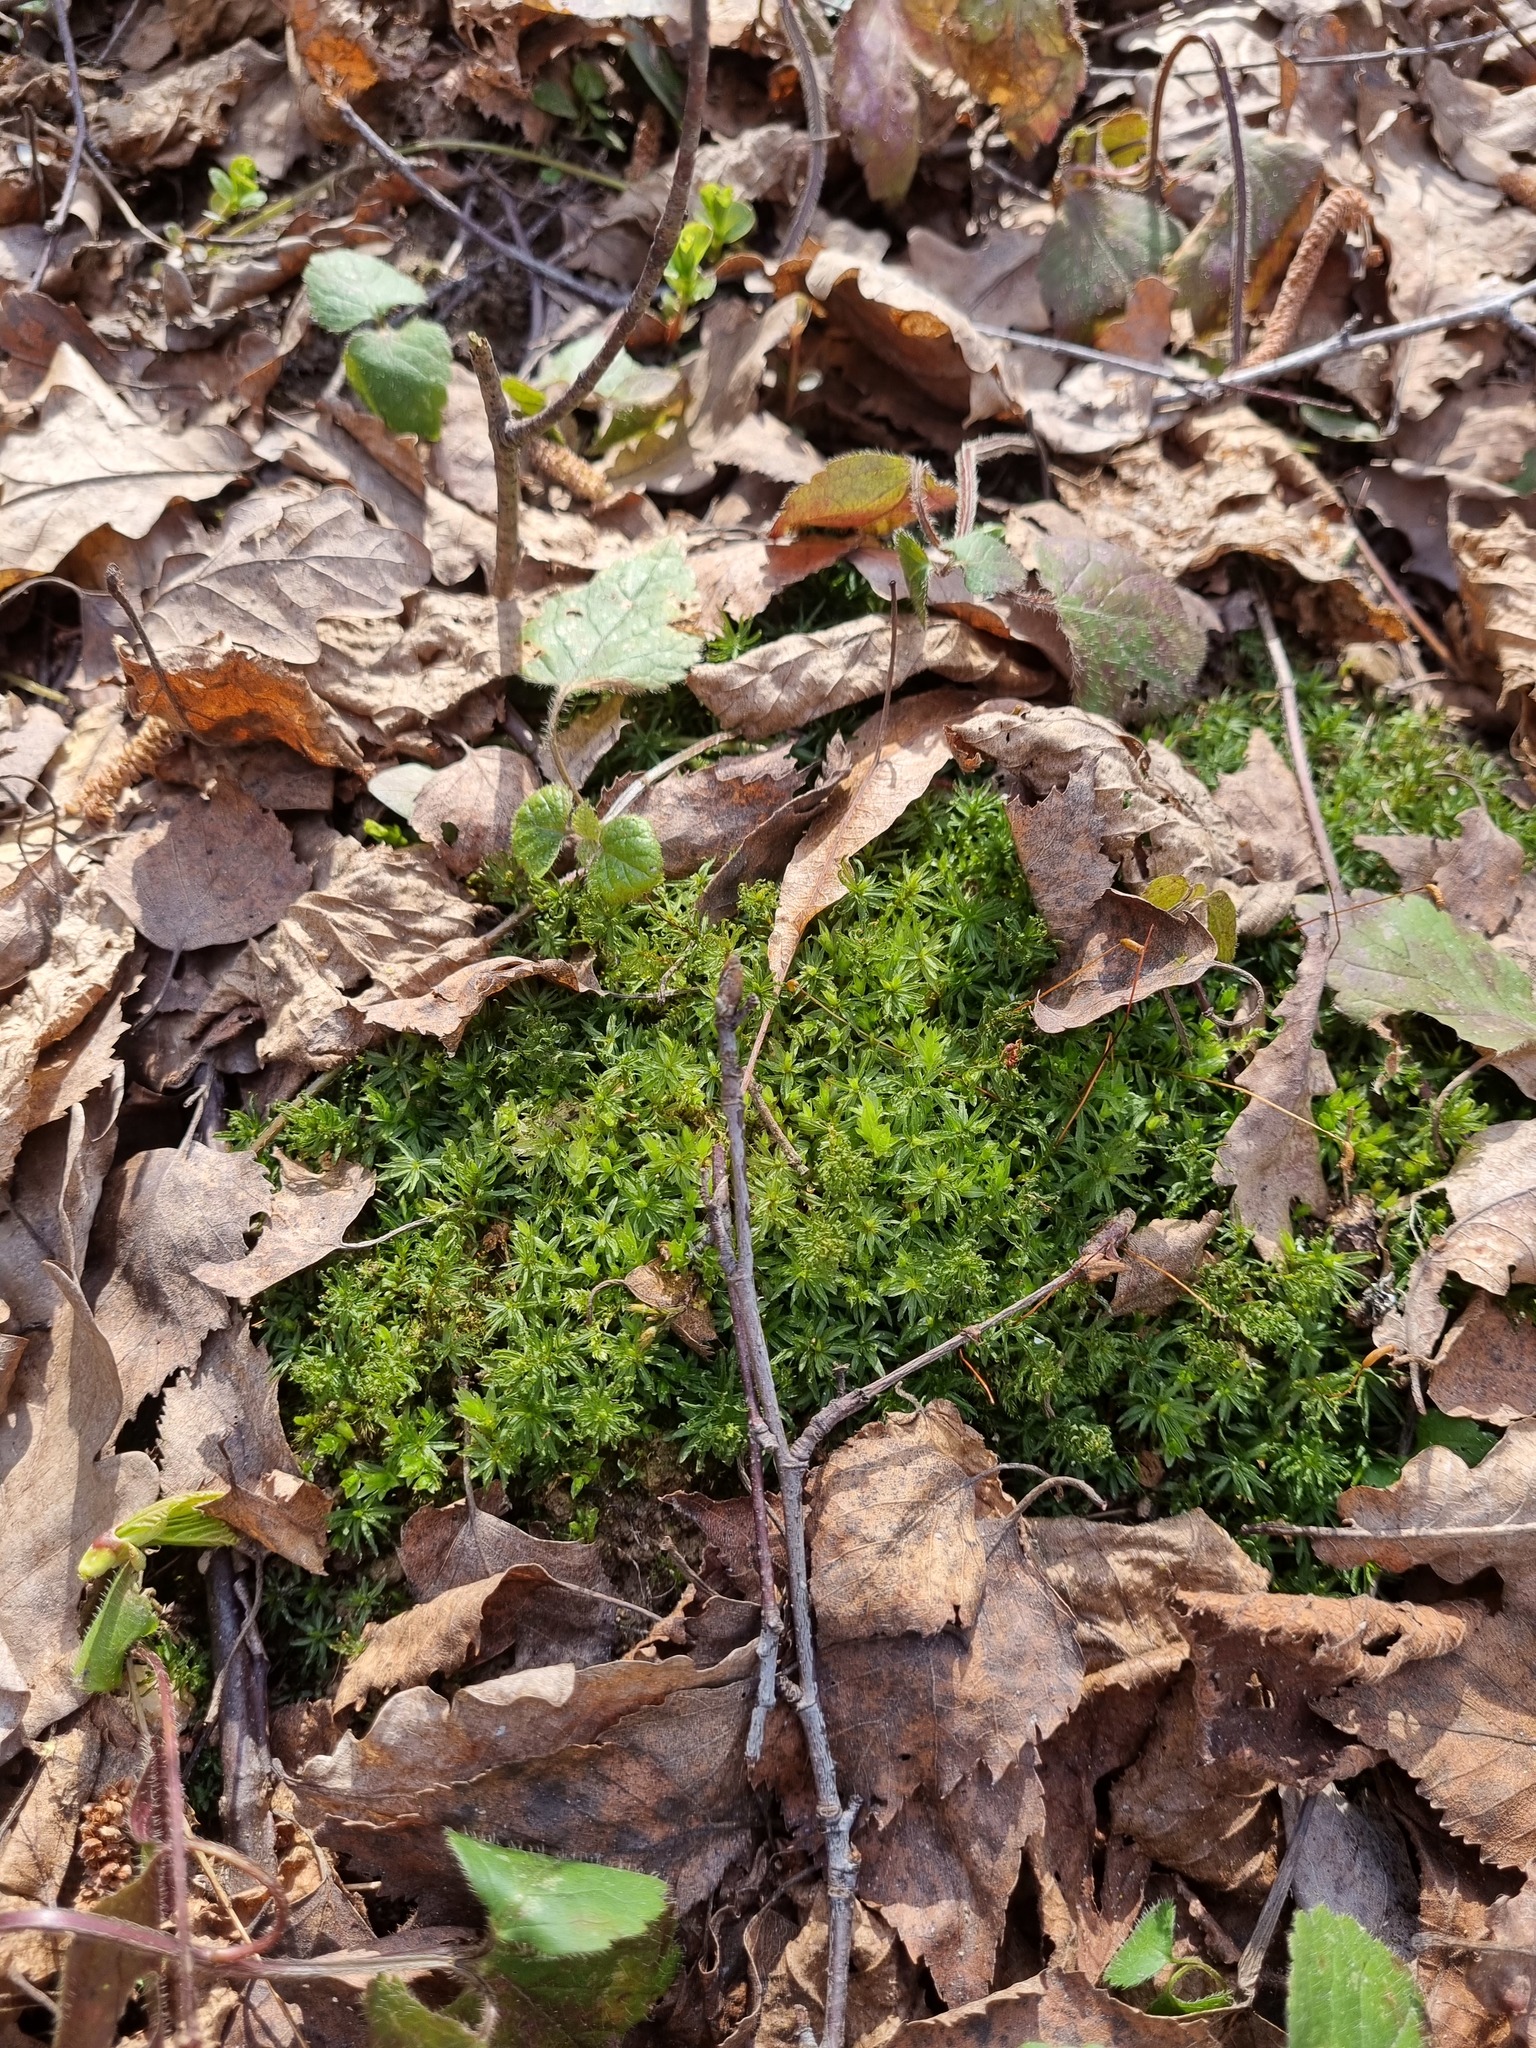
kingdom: Plantae
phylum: Bryophyta
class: Polytrichopsida
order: Polytrichales
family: Polytrichaceae
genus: Atrichum
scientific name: Atrichum undulatum
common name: Common smoothcap
